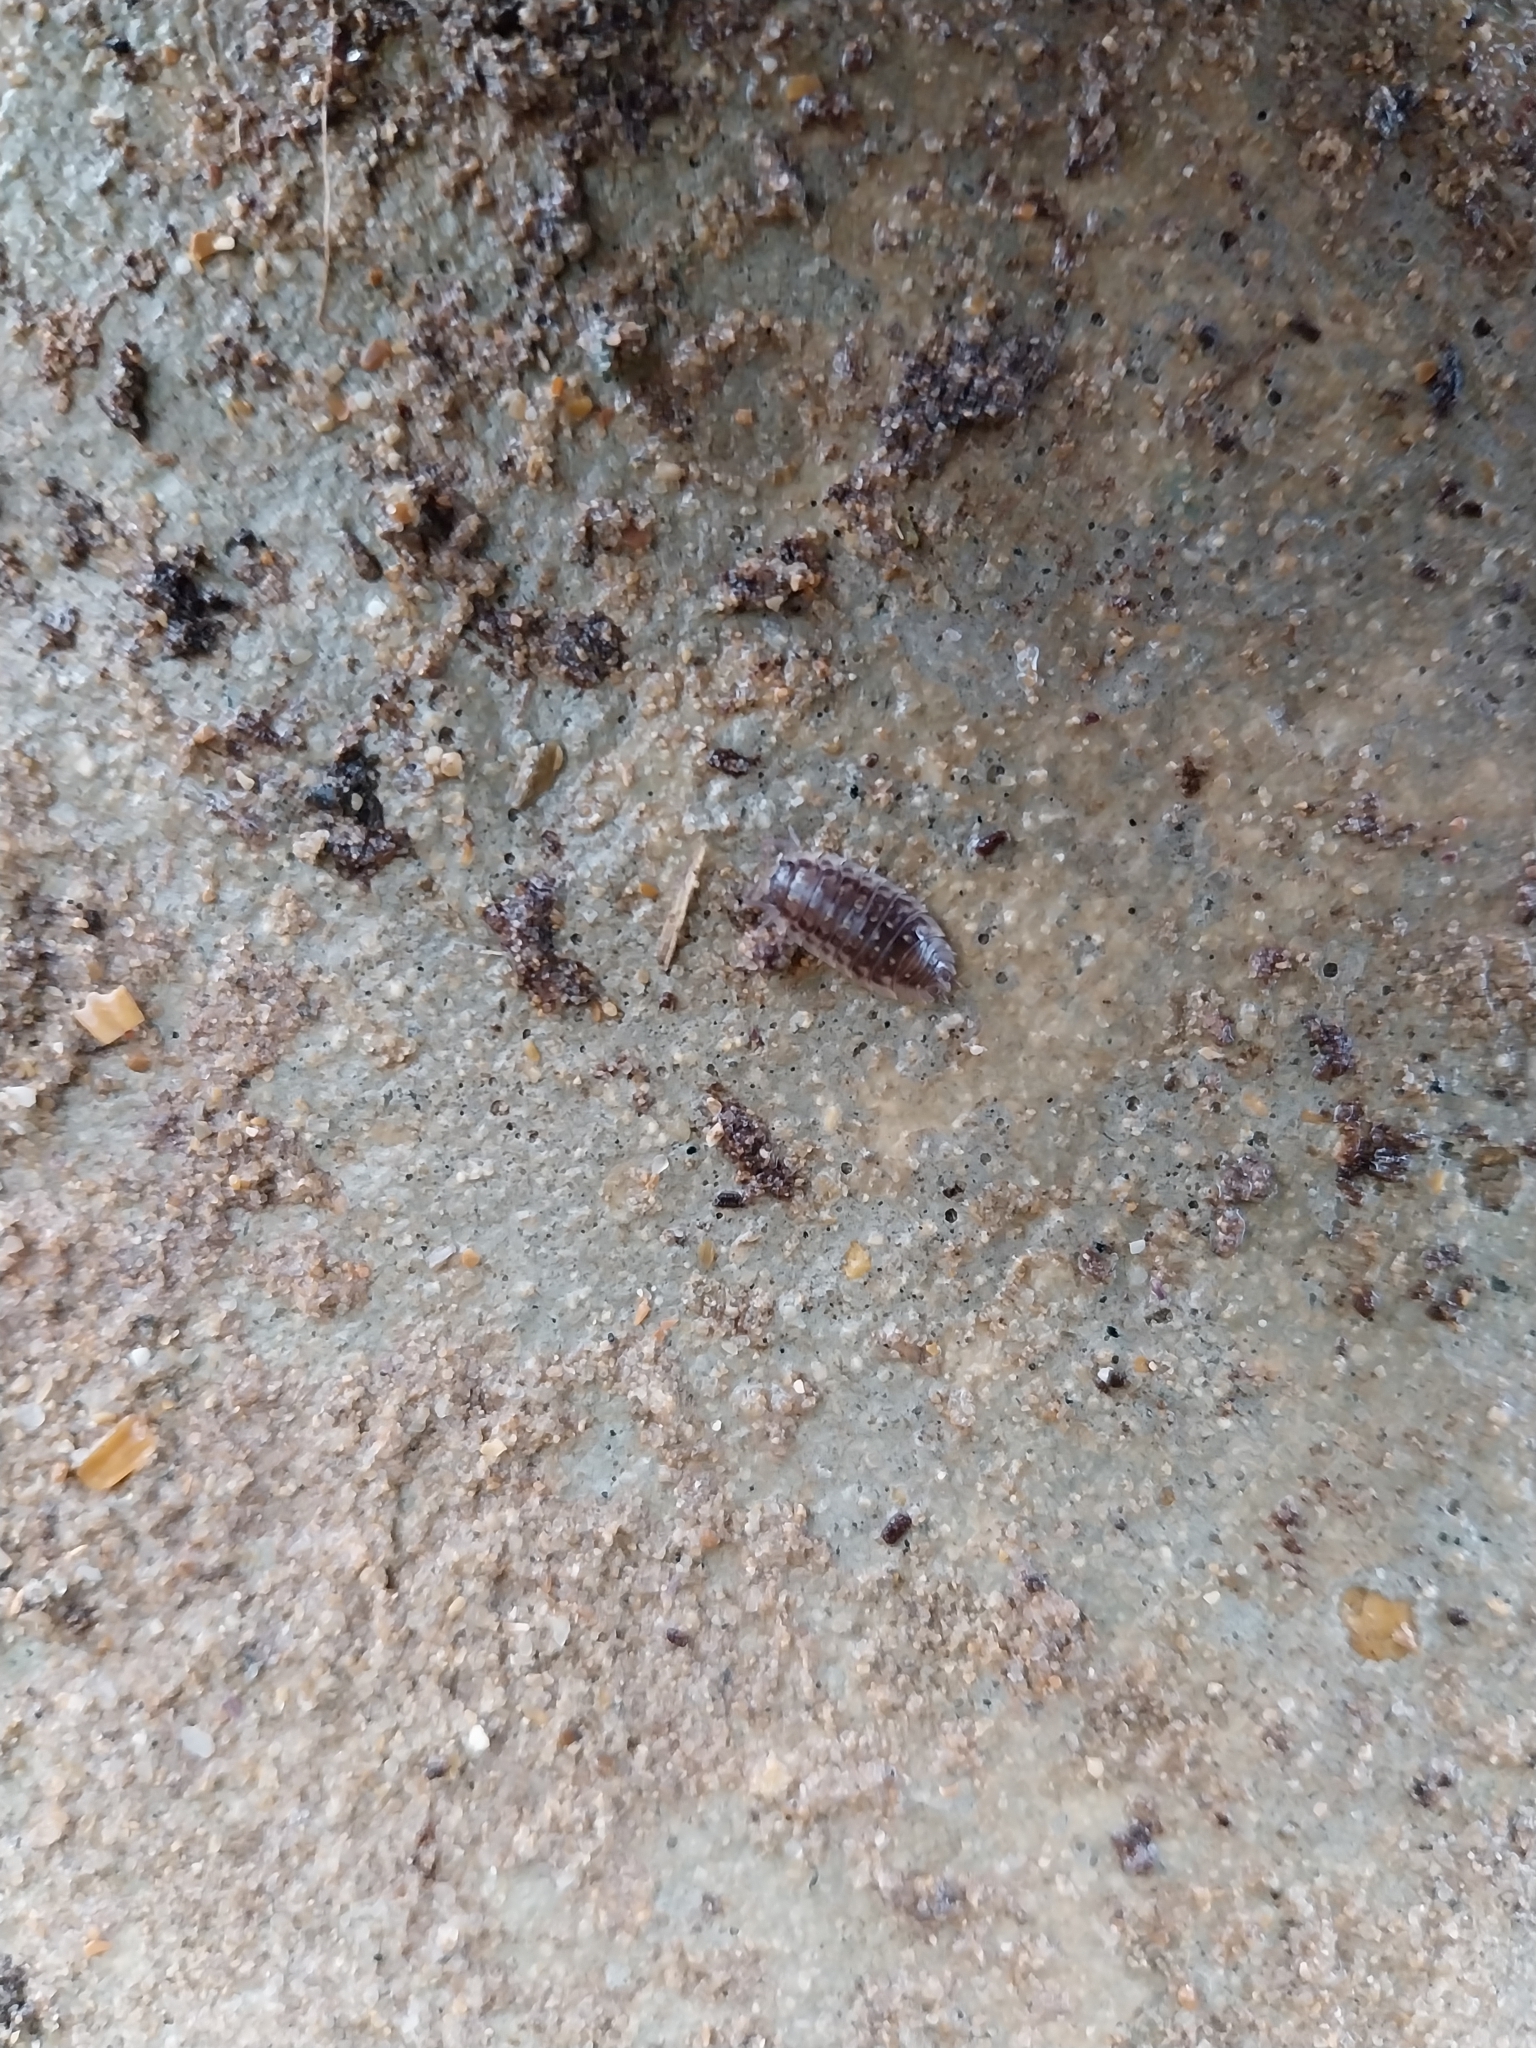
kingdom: Animalia
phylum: Arthropoda
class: Malacostraca
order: Isopoda
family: Oniscidae
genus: Oniscus
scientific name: Oniscus asellus
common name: Common shiny woodlouse
